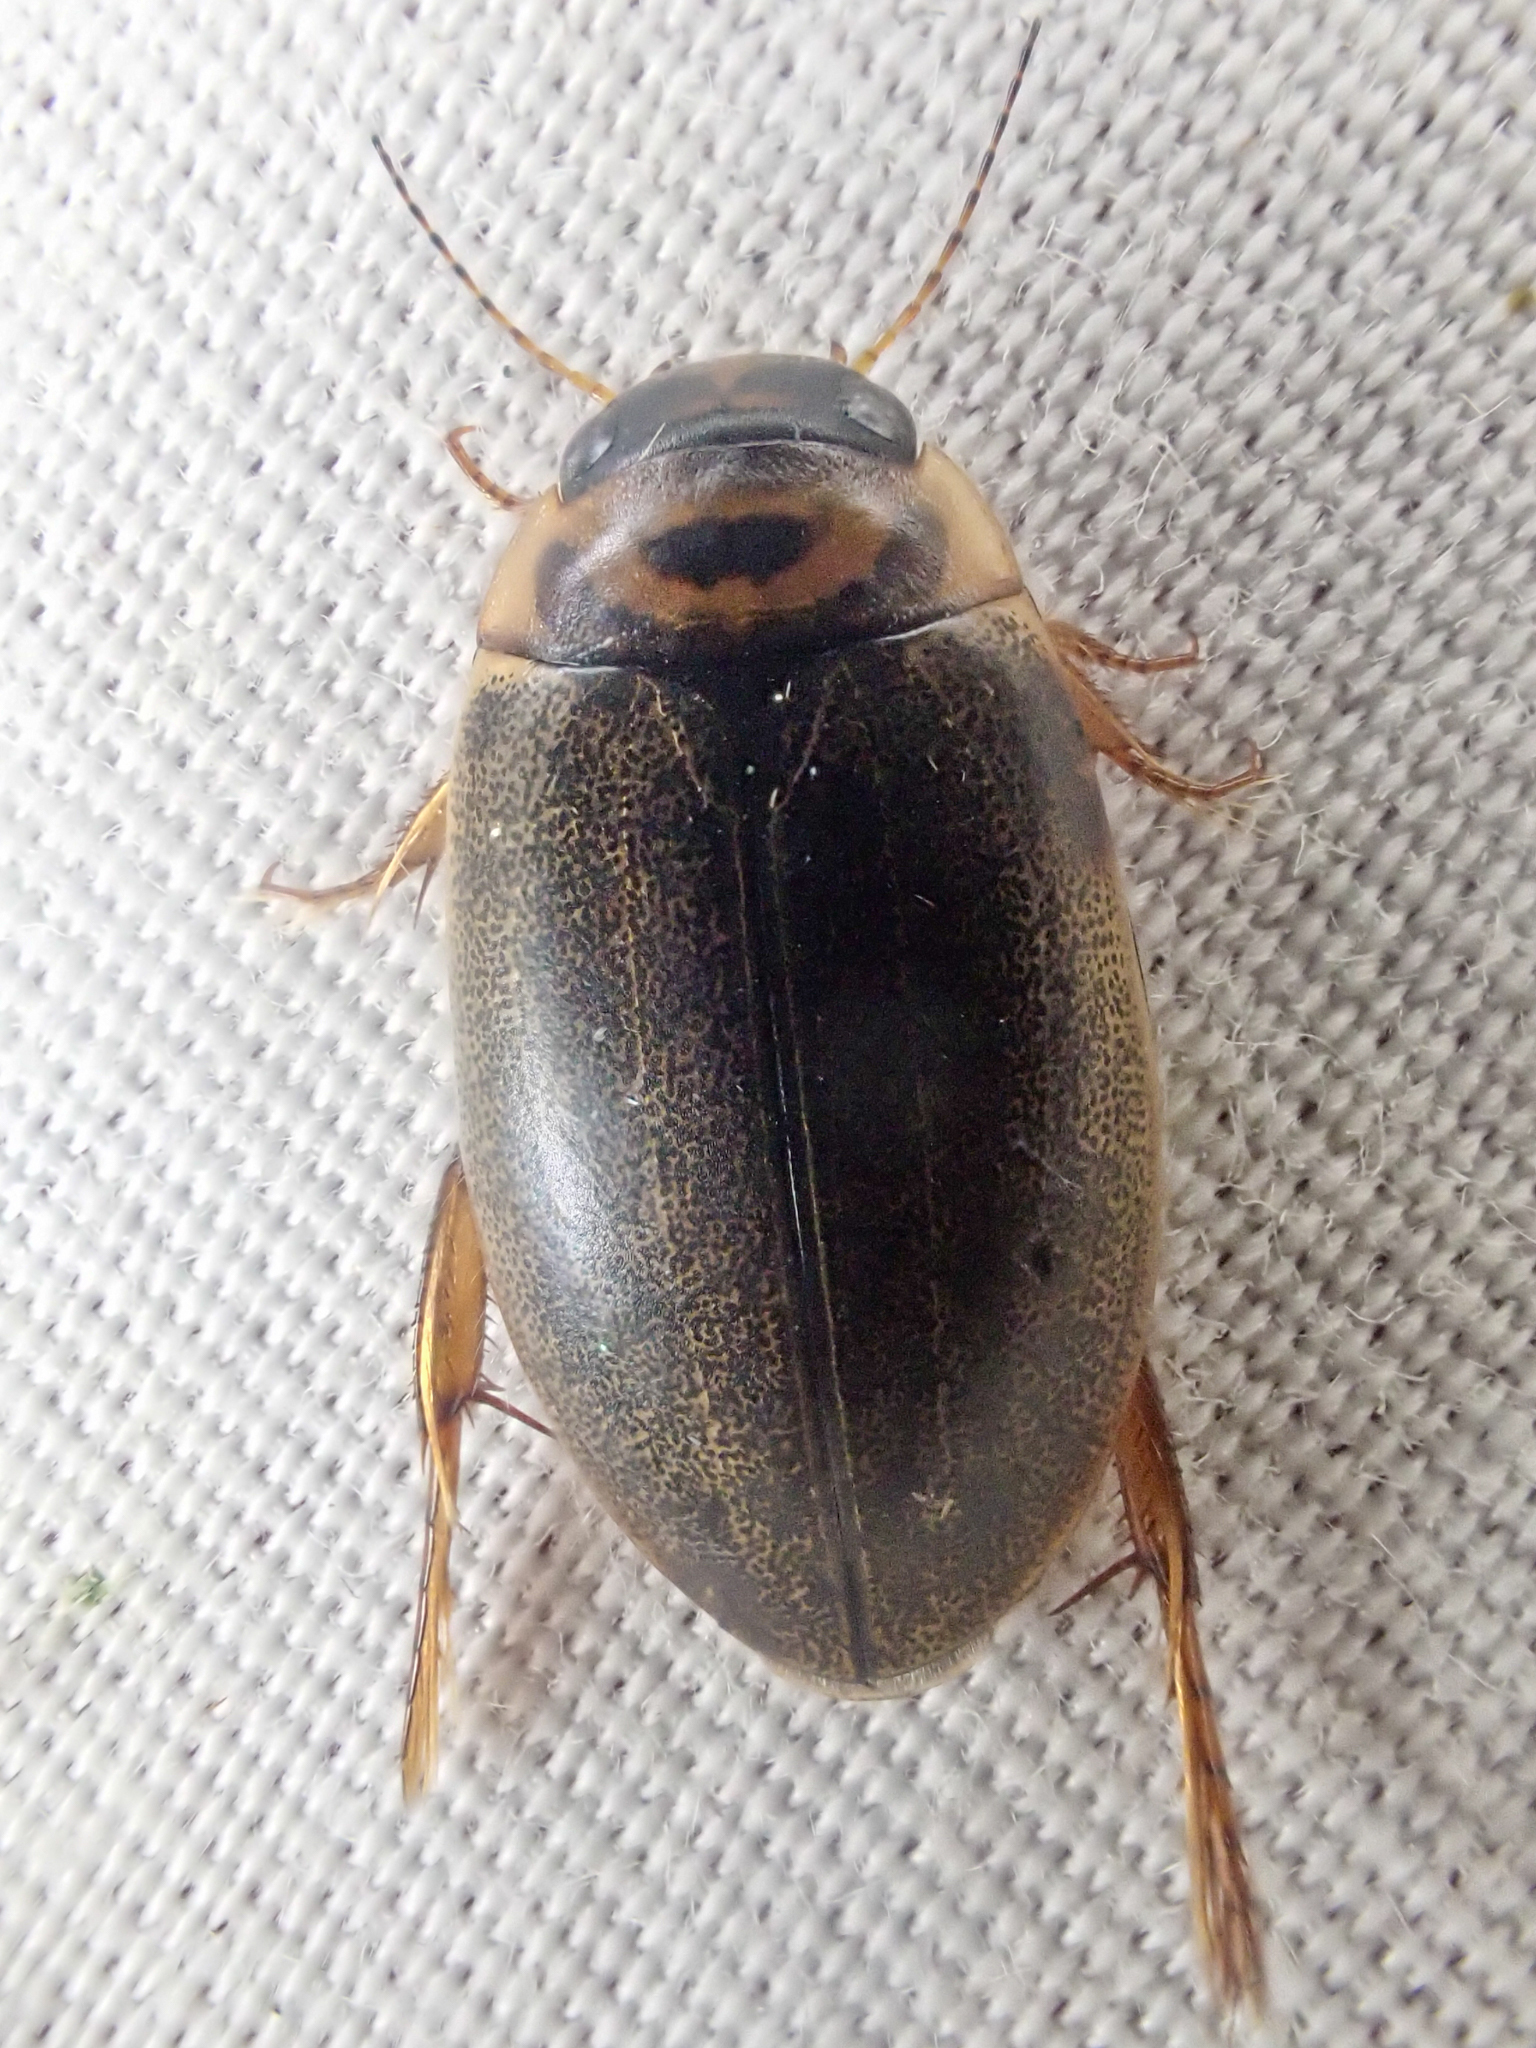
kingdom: Animalia
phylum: Arthropoda
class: Insecta
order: Coleoptera
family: Dytiscidae
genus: Rhantus
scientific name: Rhantus sericans
